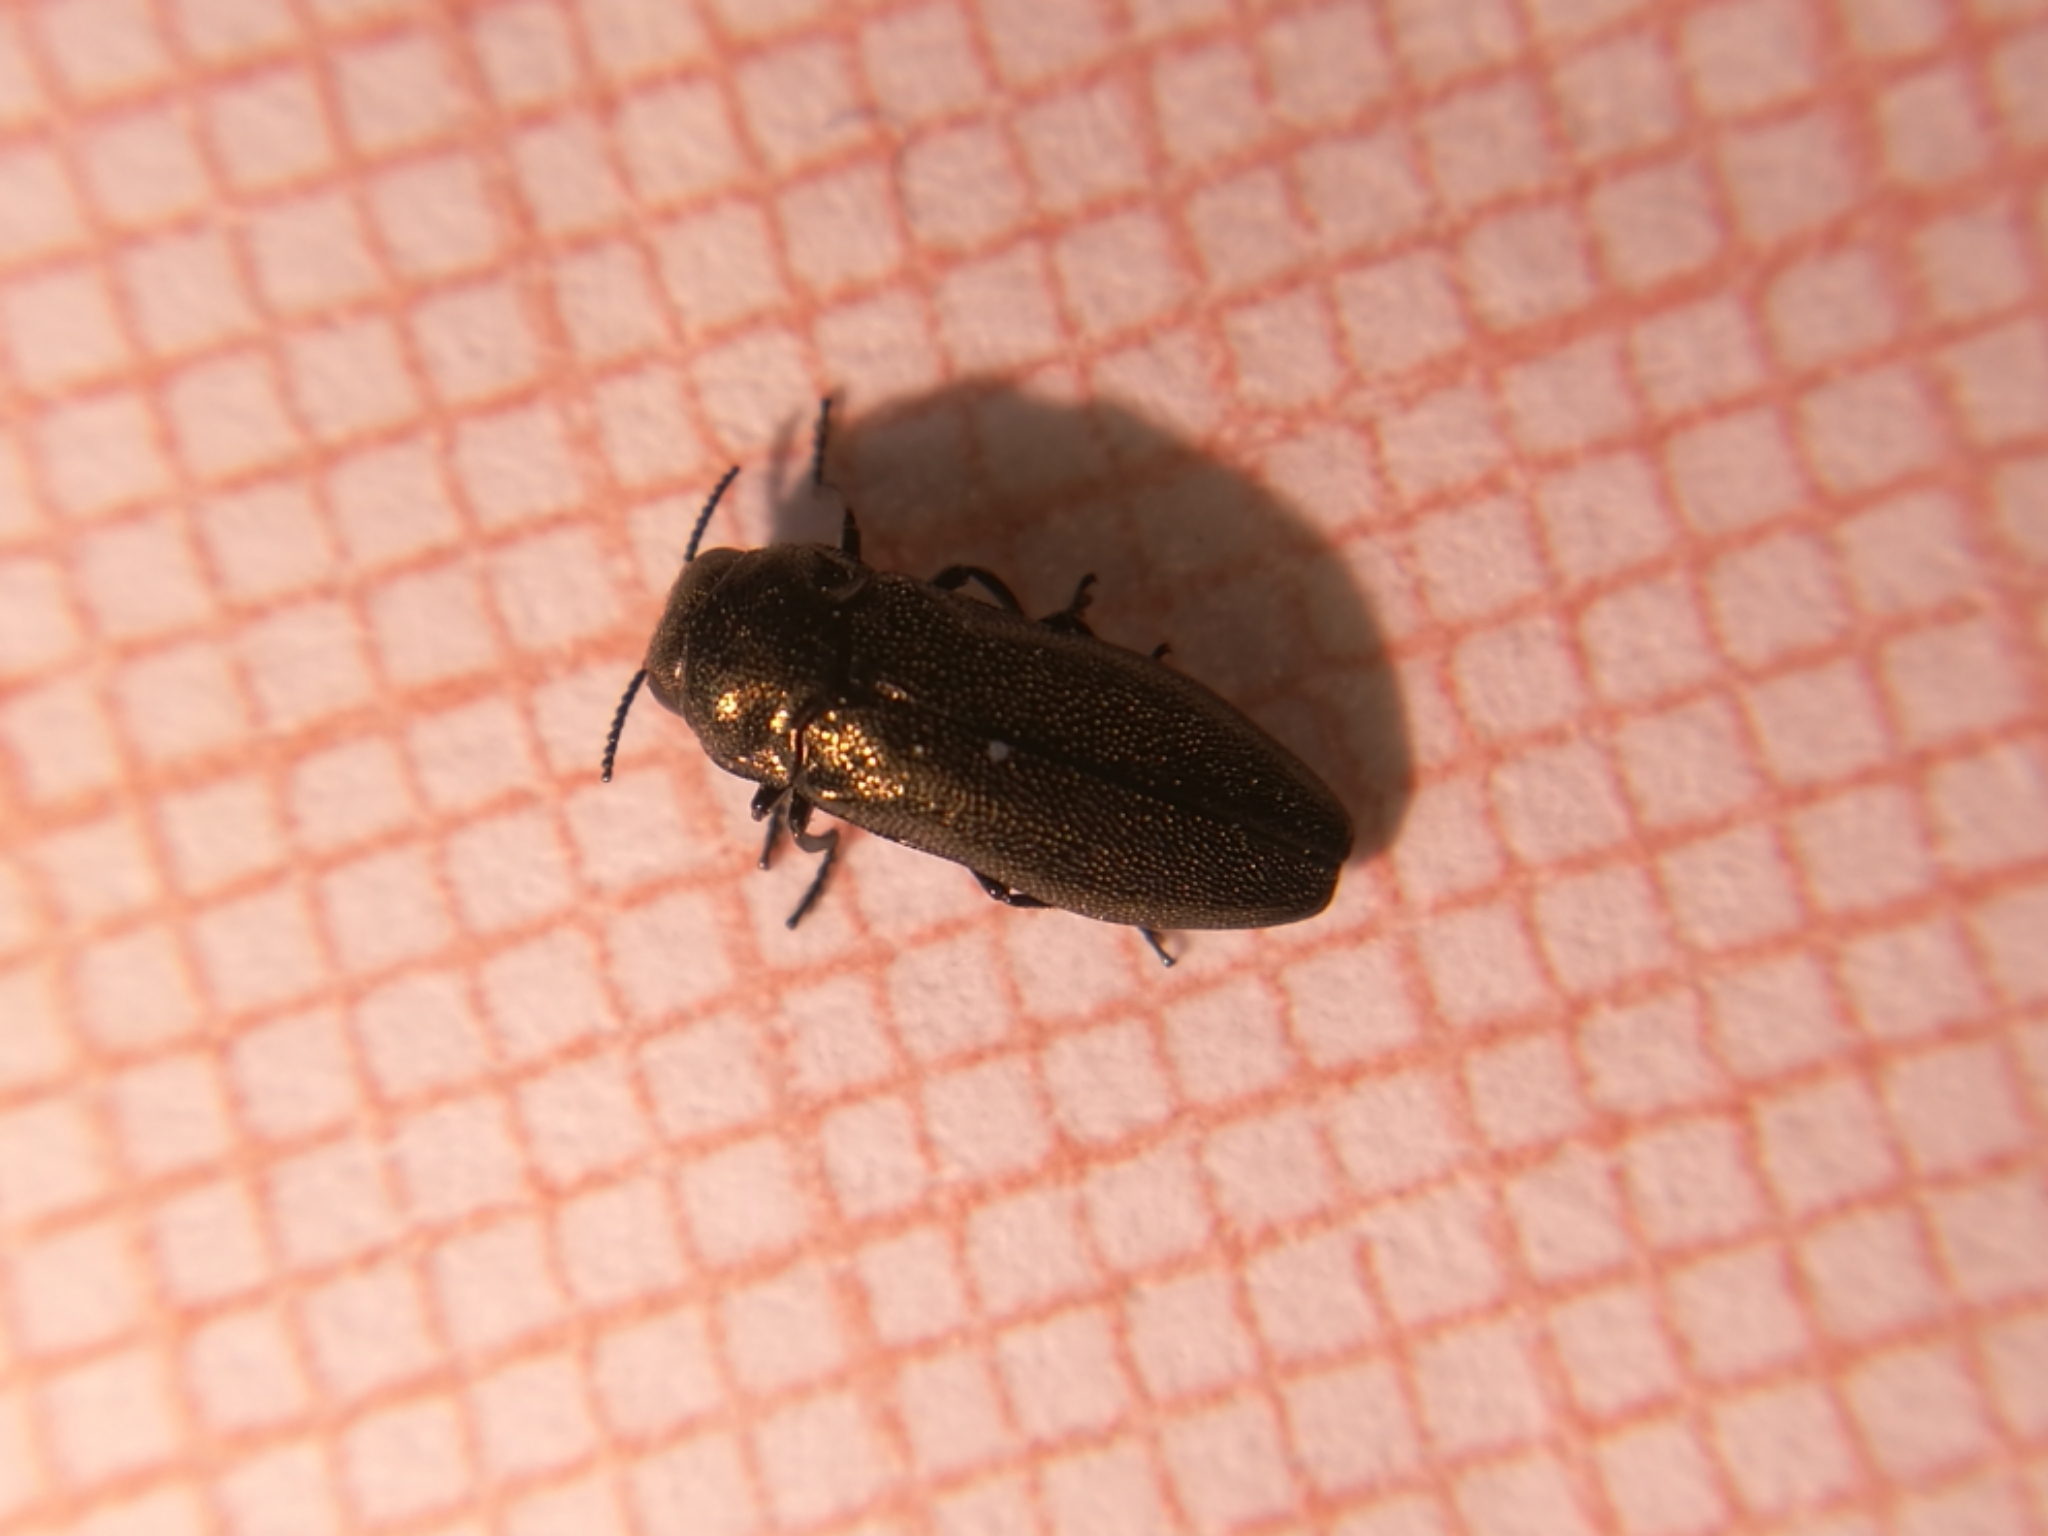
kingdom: Animalia
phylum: Arthropoda
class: Insecta
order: Coleoptera
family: Buprestidae
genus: Coraebus
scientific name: Coraebus elatus
